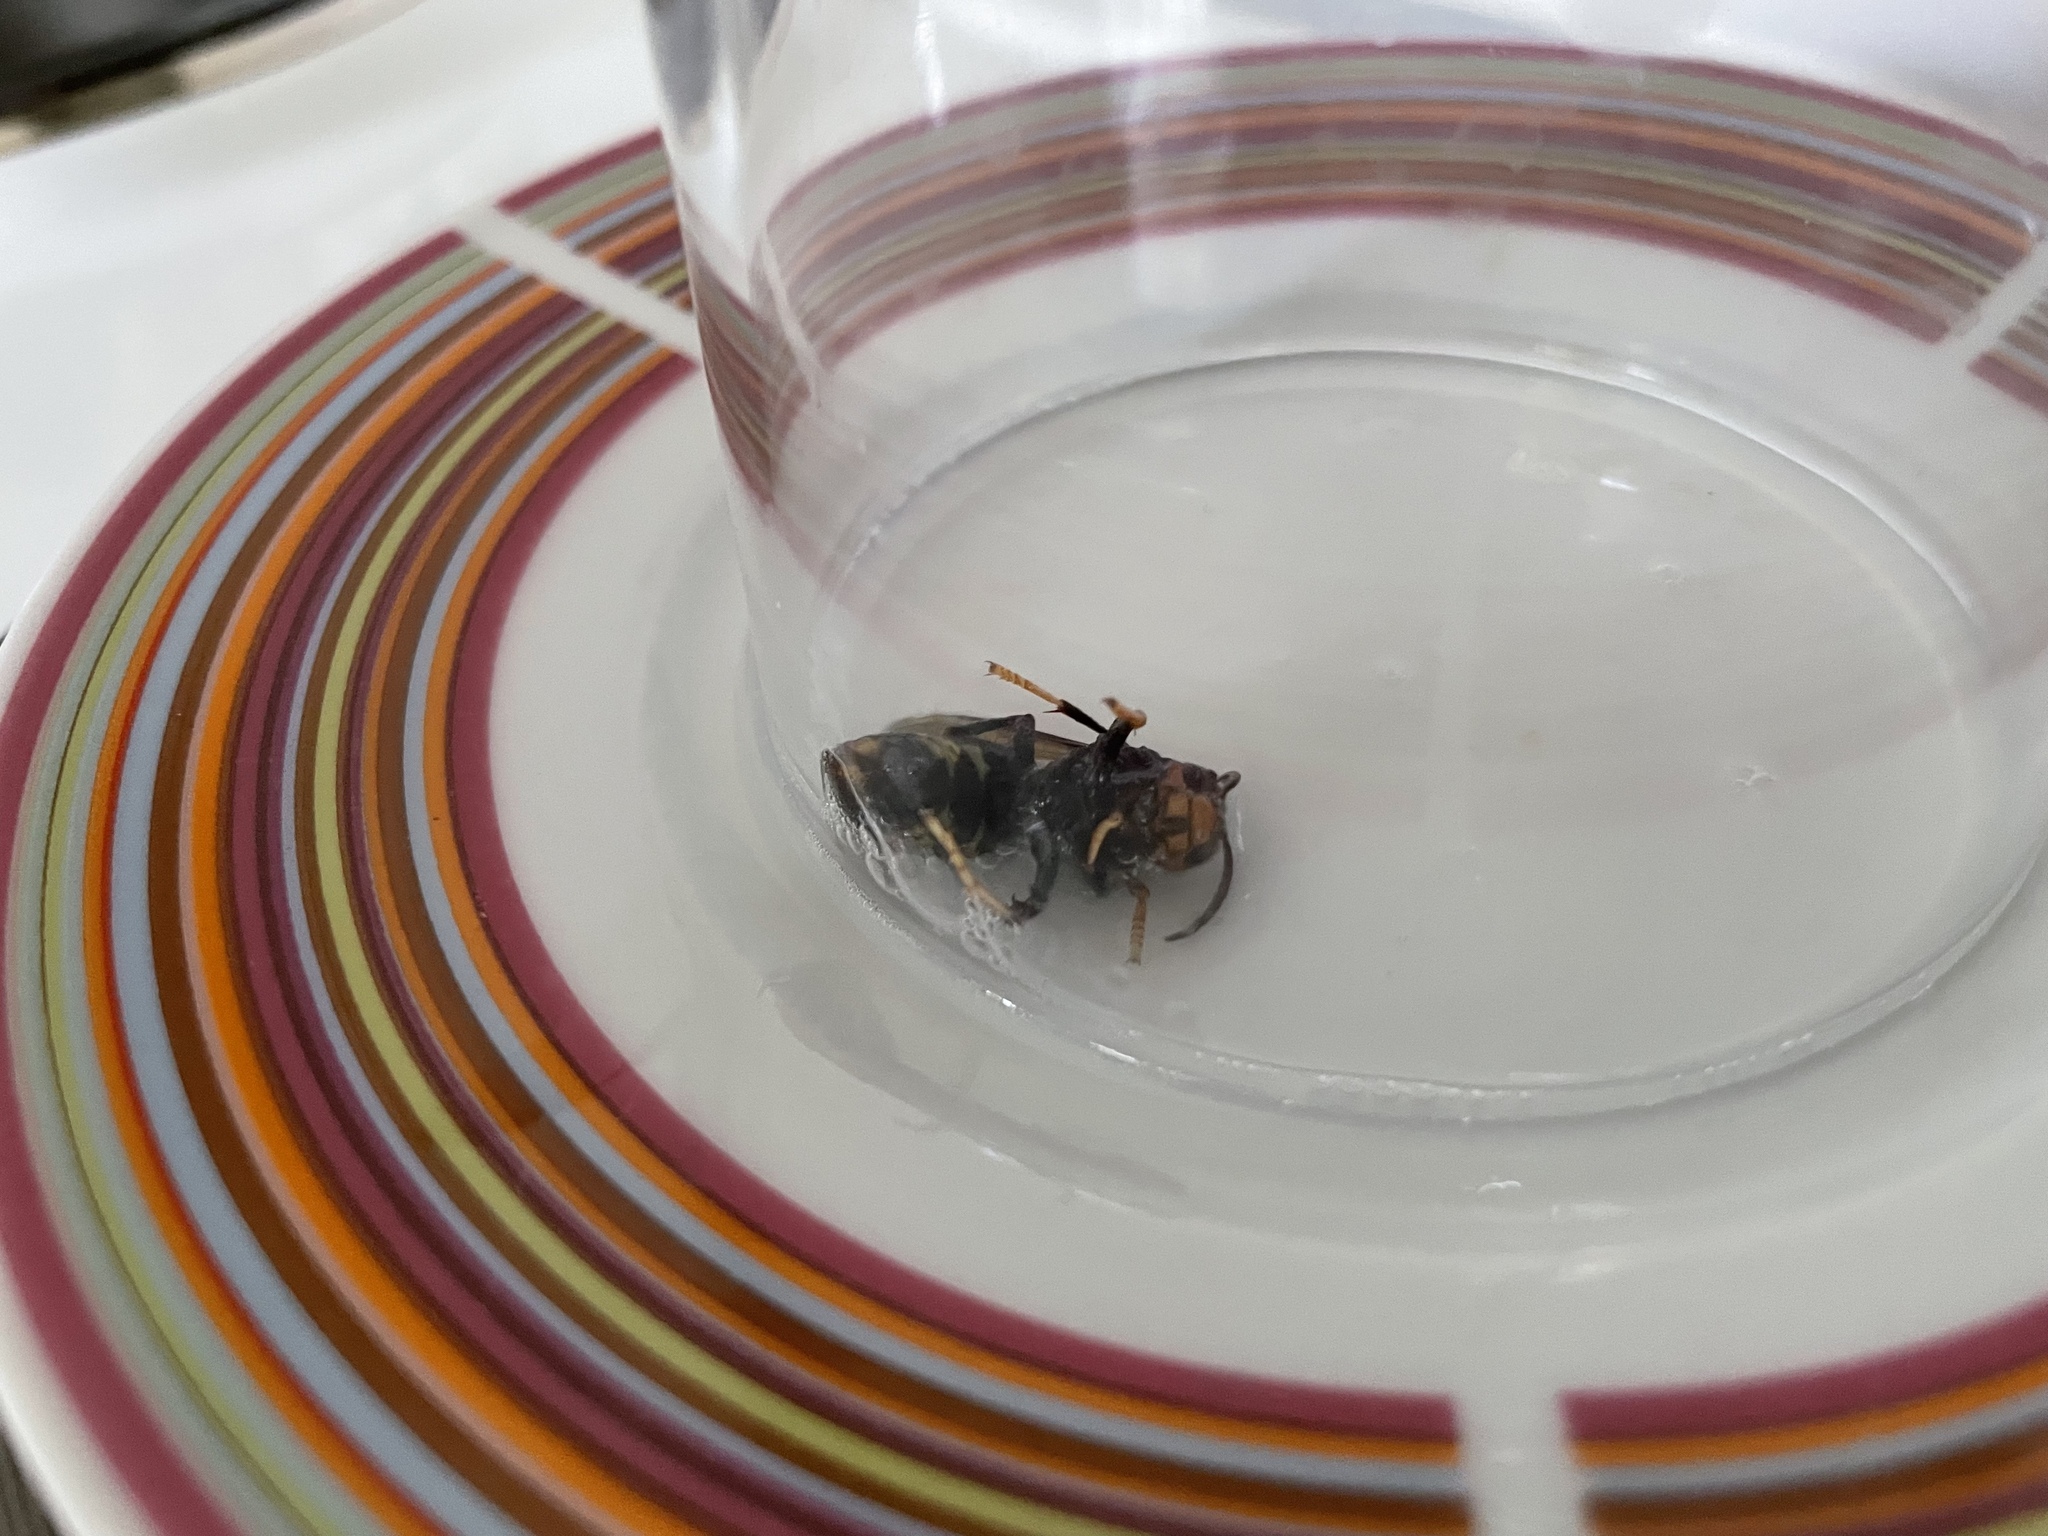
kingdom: Animalia
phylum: Arthropoda
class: Insecta
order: Hymenoptera
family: Vespidae
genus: Vespa
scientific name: Vespa velutina
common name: Asian hornet
